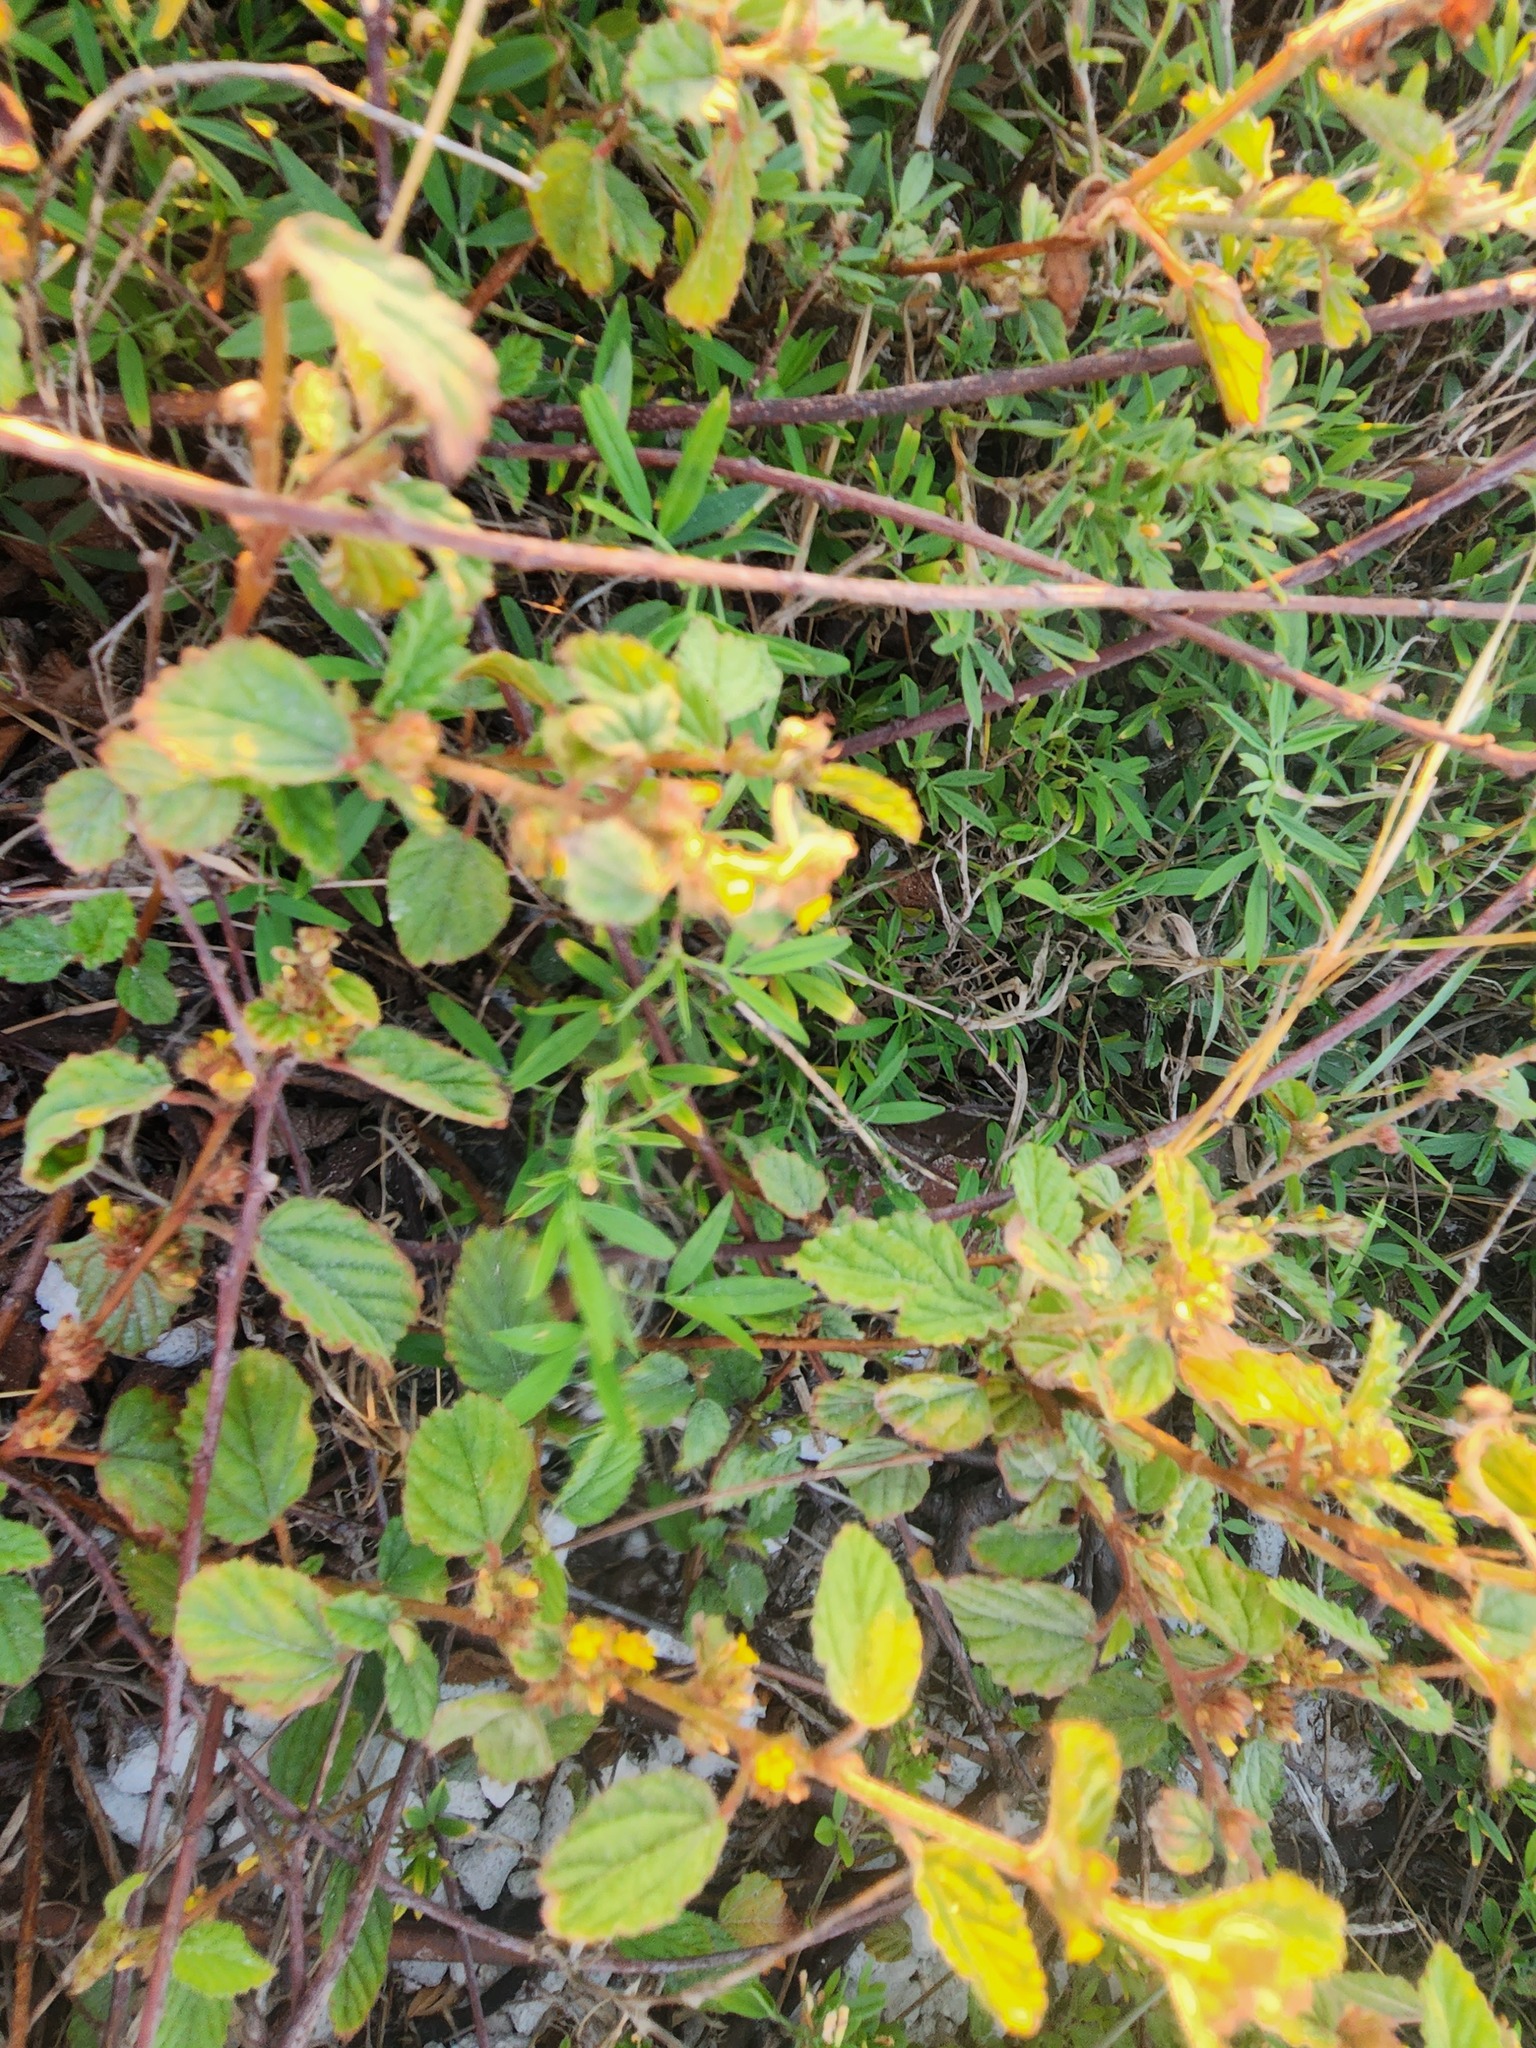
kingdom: Plantae
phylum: Tracheophyta
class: Magnoliopsida
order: Malvales
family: Malvaceae
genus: Waltheria
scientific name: Waltheria indica
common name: Leather-coat
